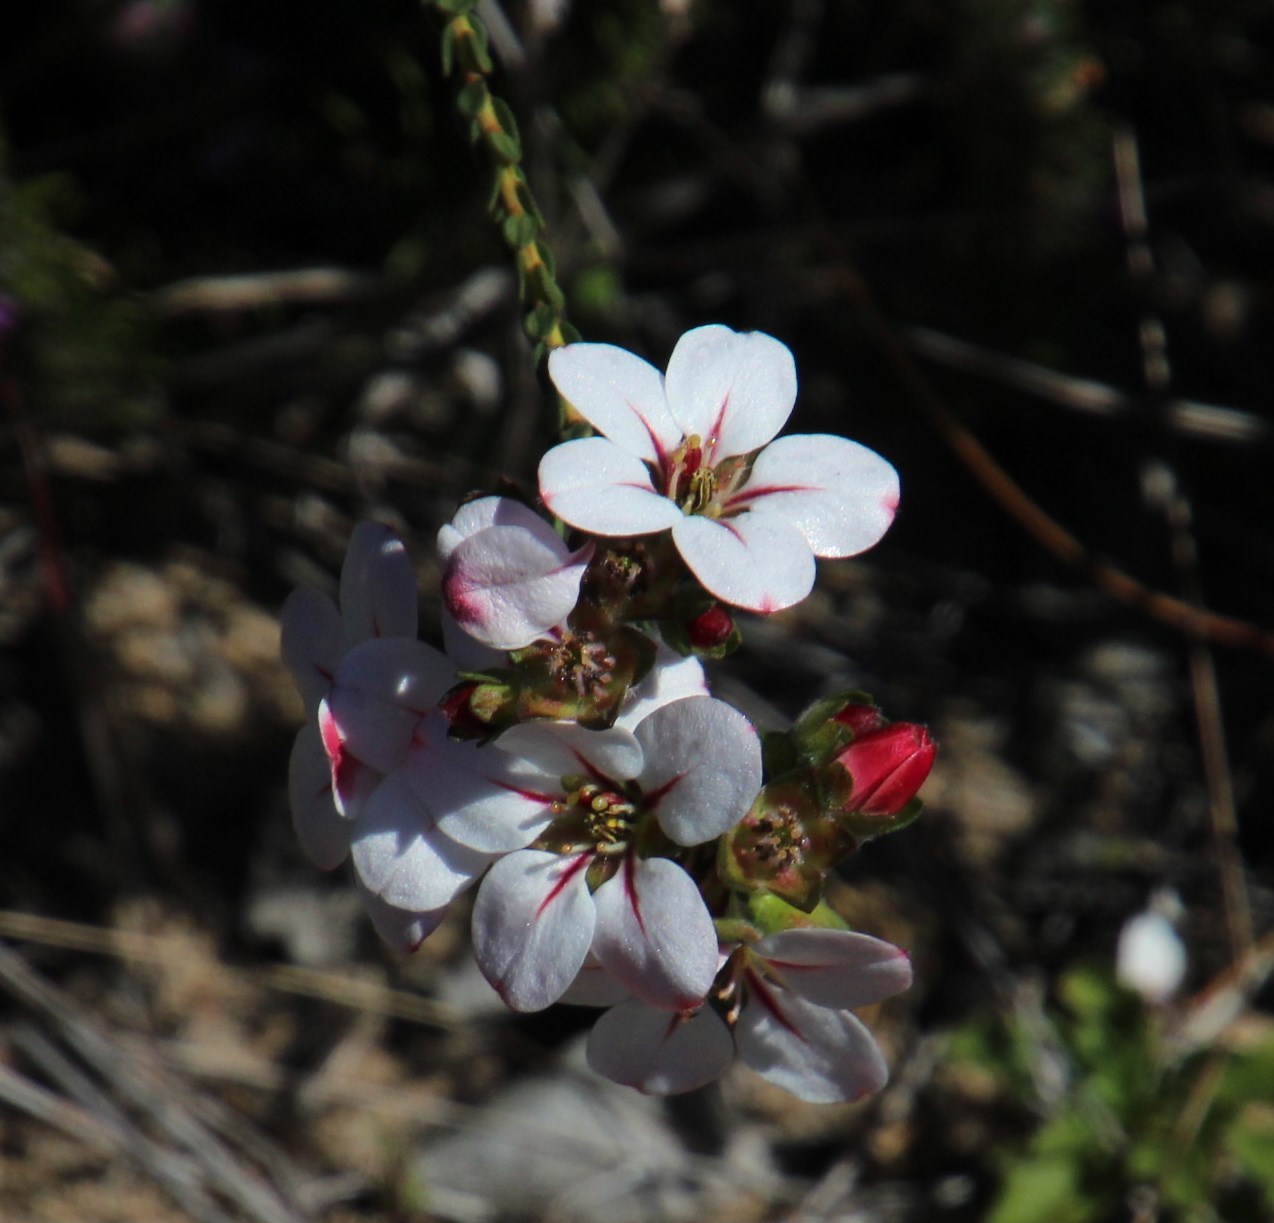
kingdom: Plantae
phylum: Tracheophyta
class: Magnoliopsida
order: Sapindales
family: Rutaceae
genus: Adenandra
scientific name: Adenandra villosa
